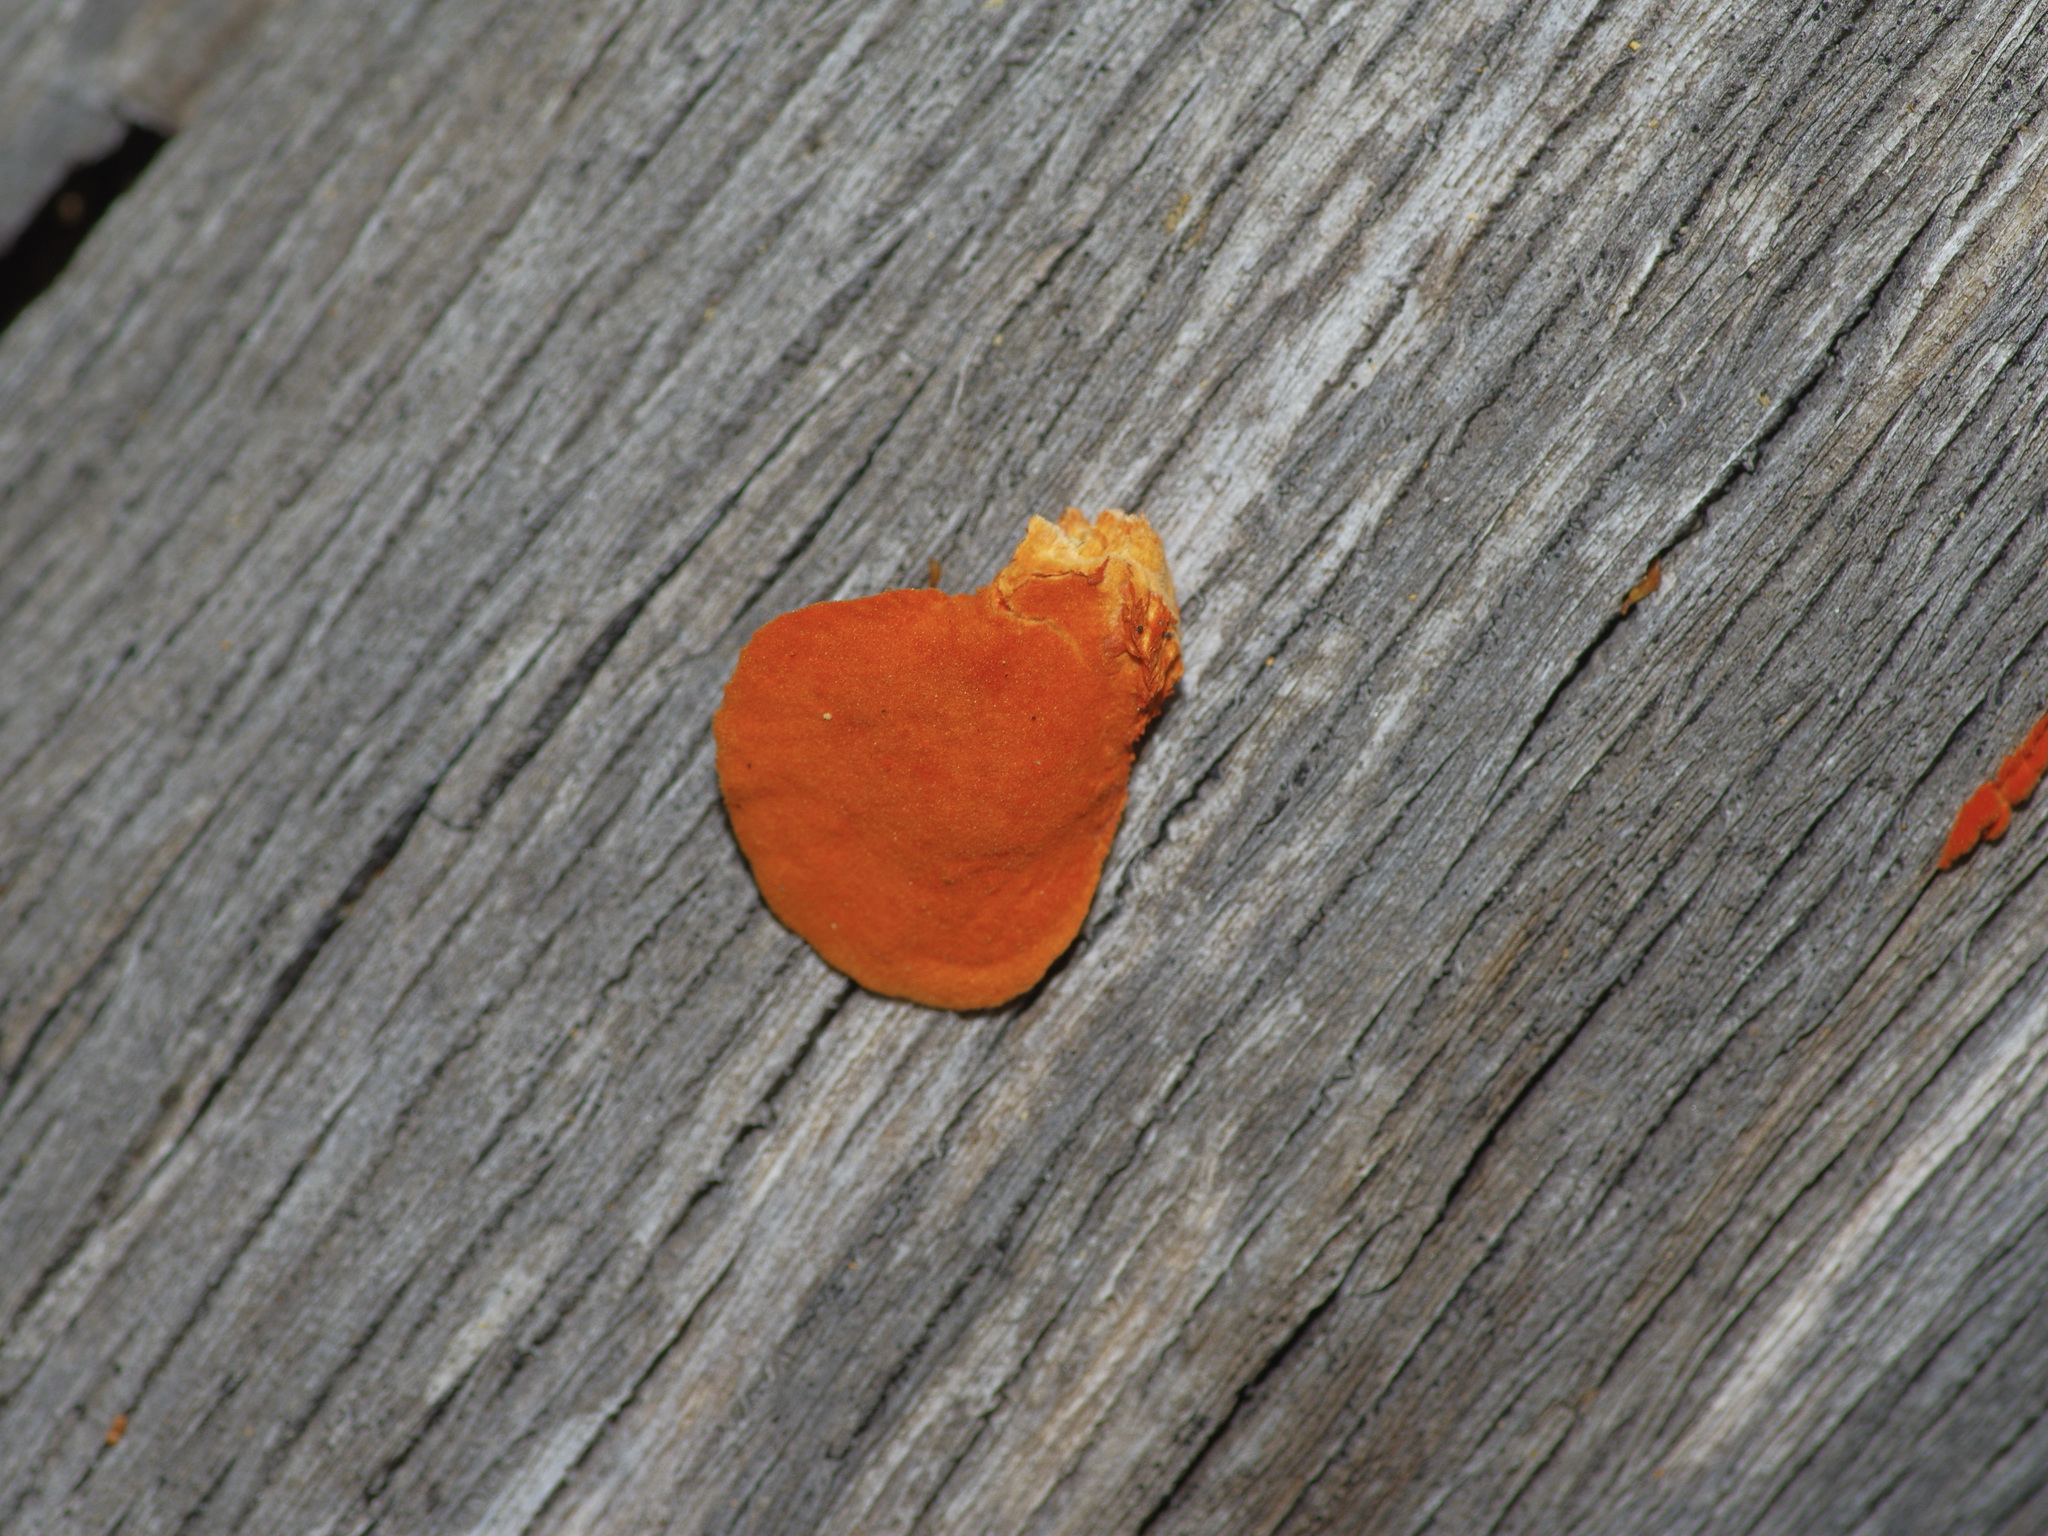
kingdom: Fungi
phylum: Basidiomycota
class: Agaricomycetes
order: Polyporales
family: Polyporaceae
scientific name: Polyporaceae
